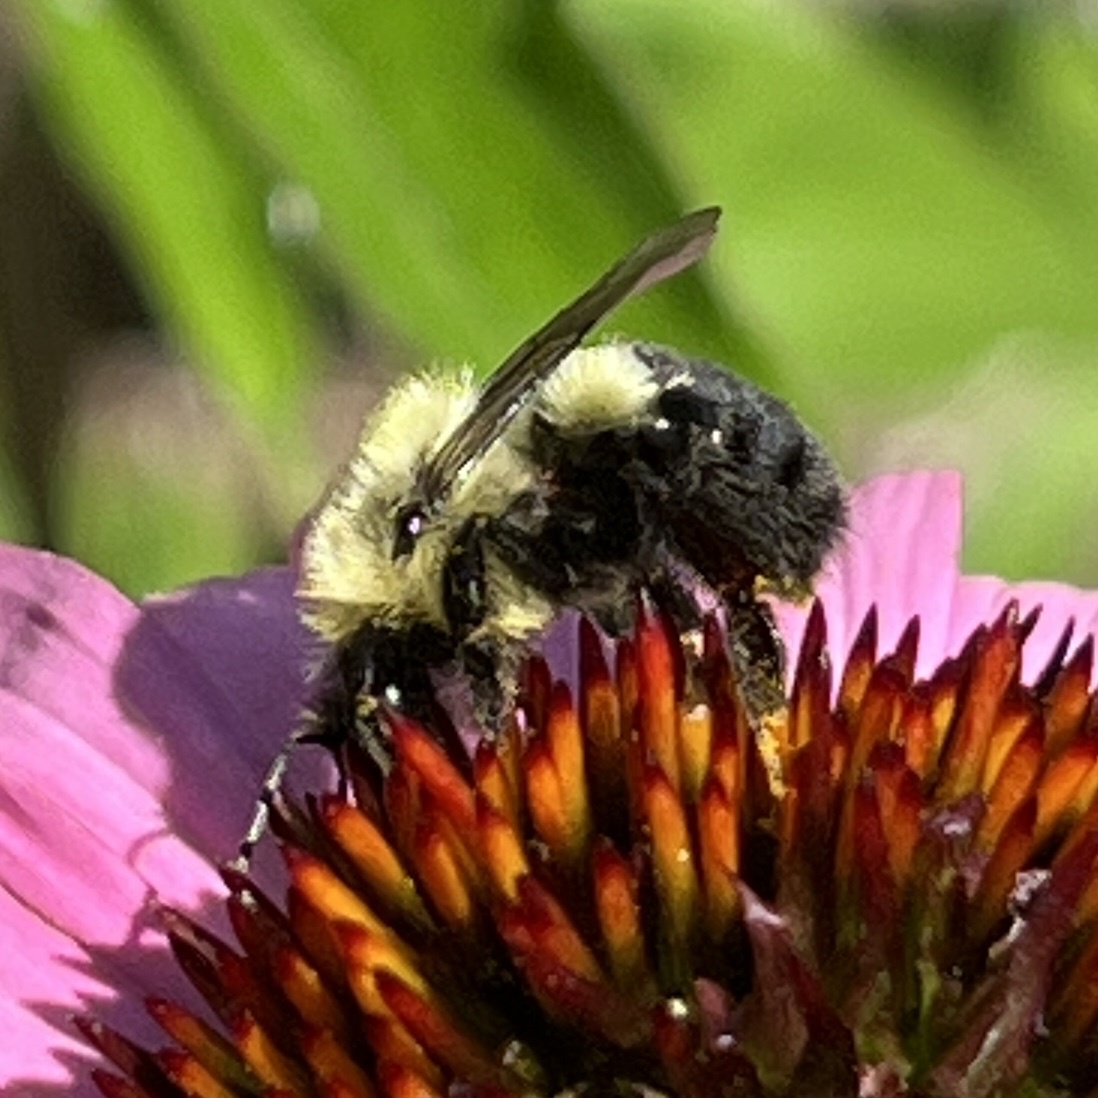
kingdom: Animalia
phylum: Arthropoda
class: Insecta
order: Hymenoptera
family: Apidae
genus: Bombus
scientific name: Bombus impatiens
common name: Common eastern bumble bee
